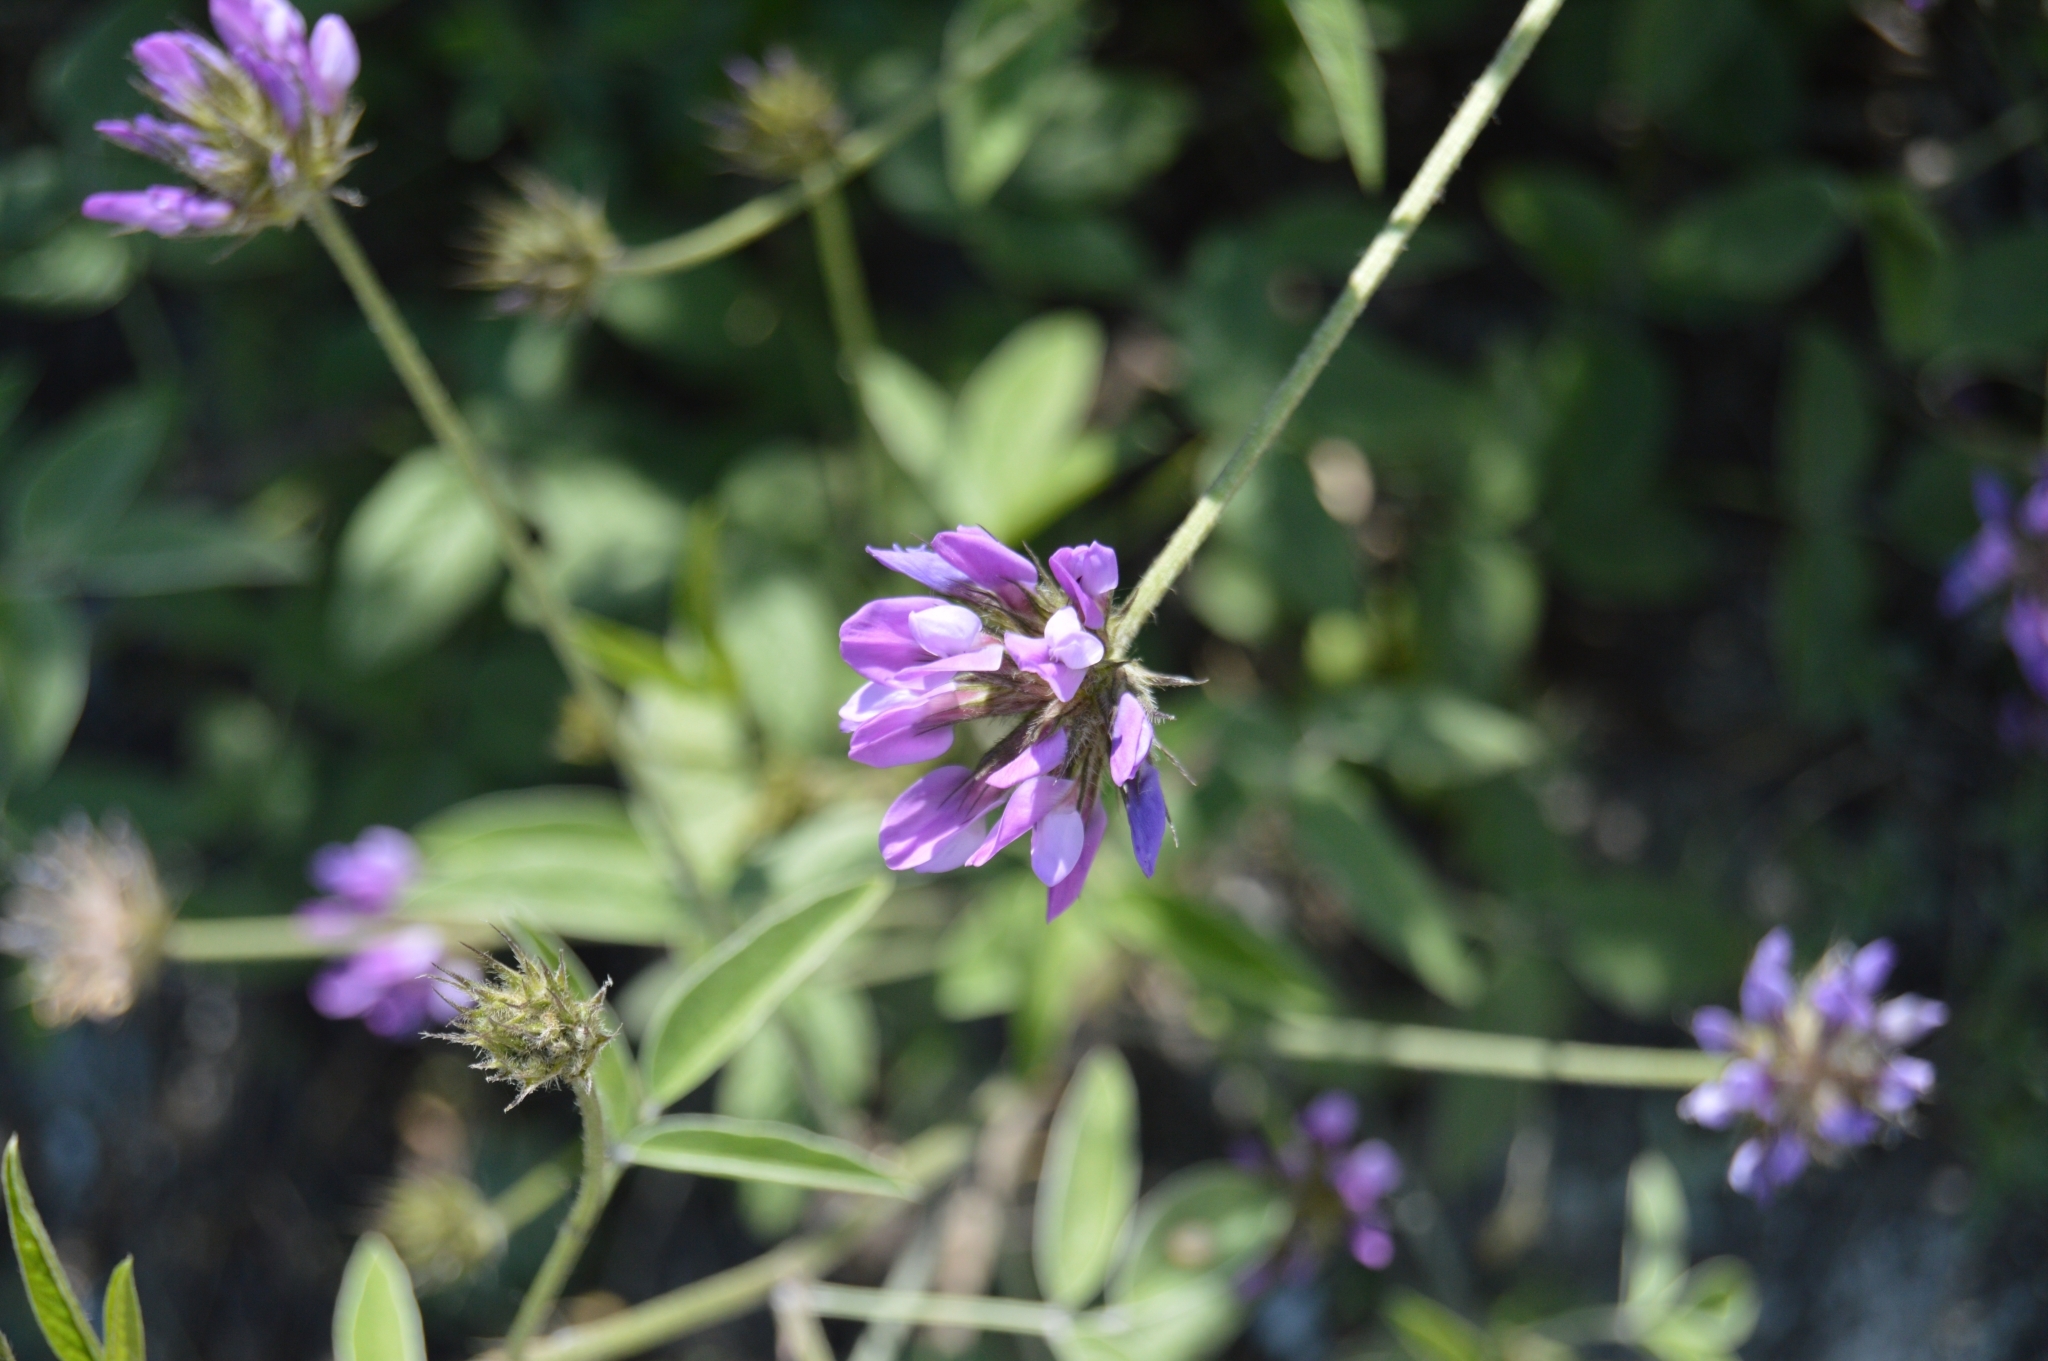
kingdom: Plantae
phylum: Tracheophyta
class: Magnoliopsida
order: Fabales
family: Fabaceae
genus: Bituminaria
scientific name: Bituminaria bituminosa
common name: Arabian pea
